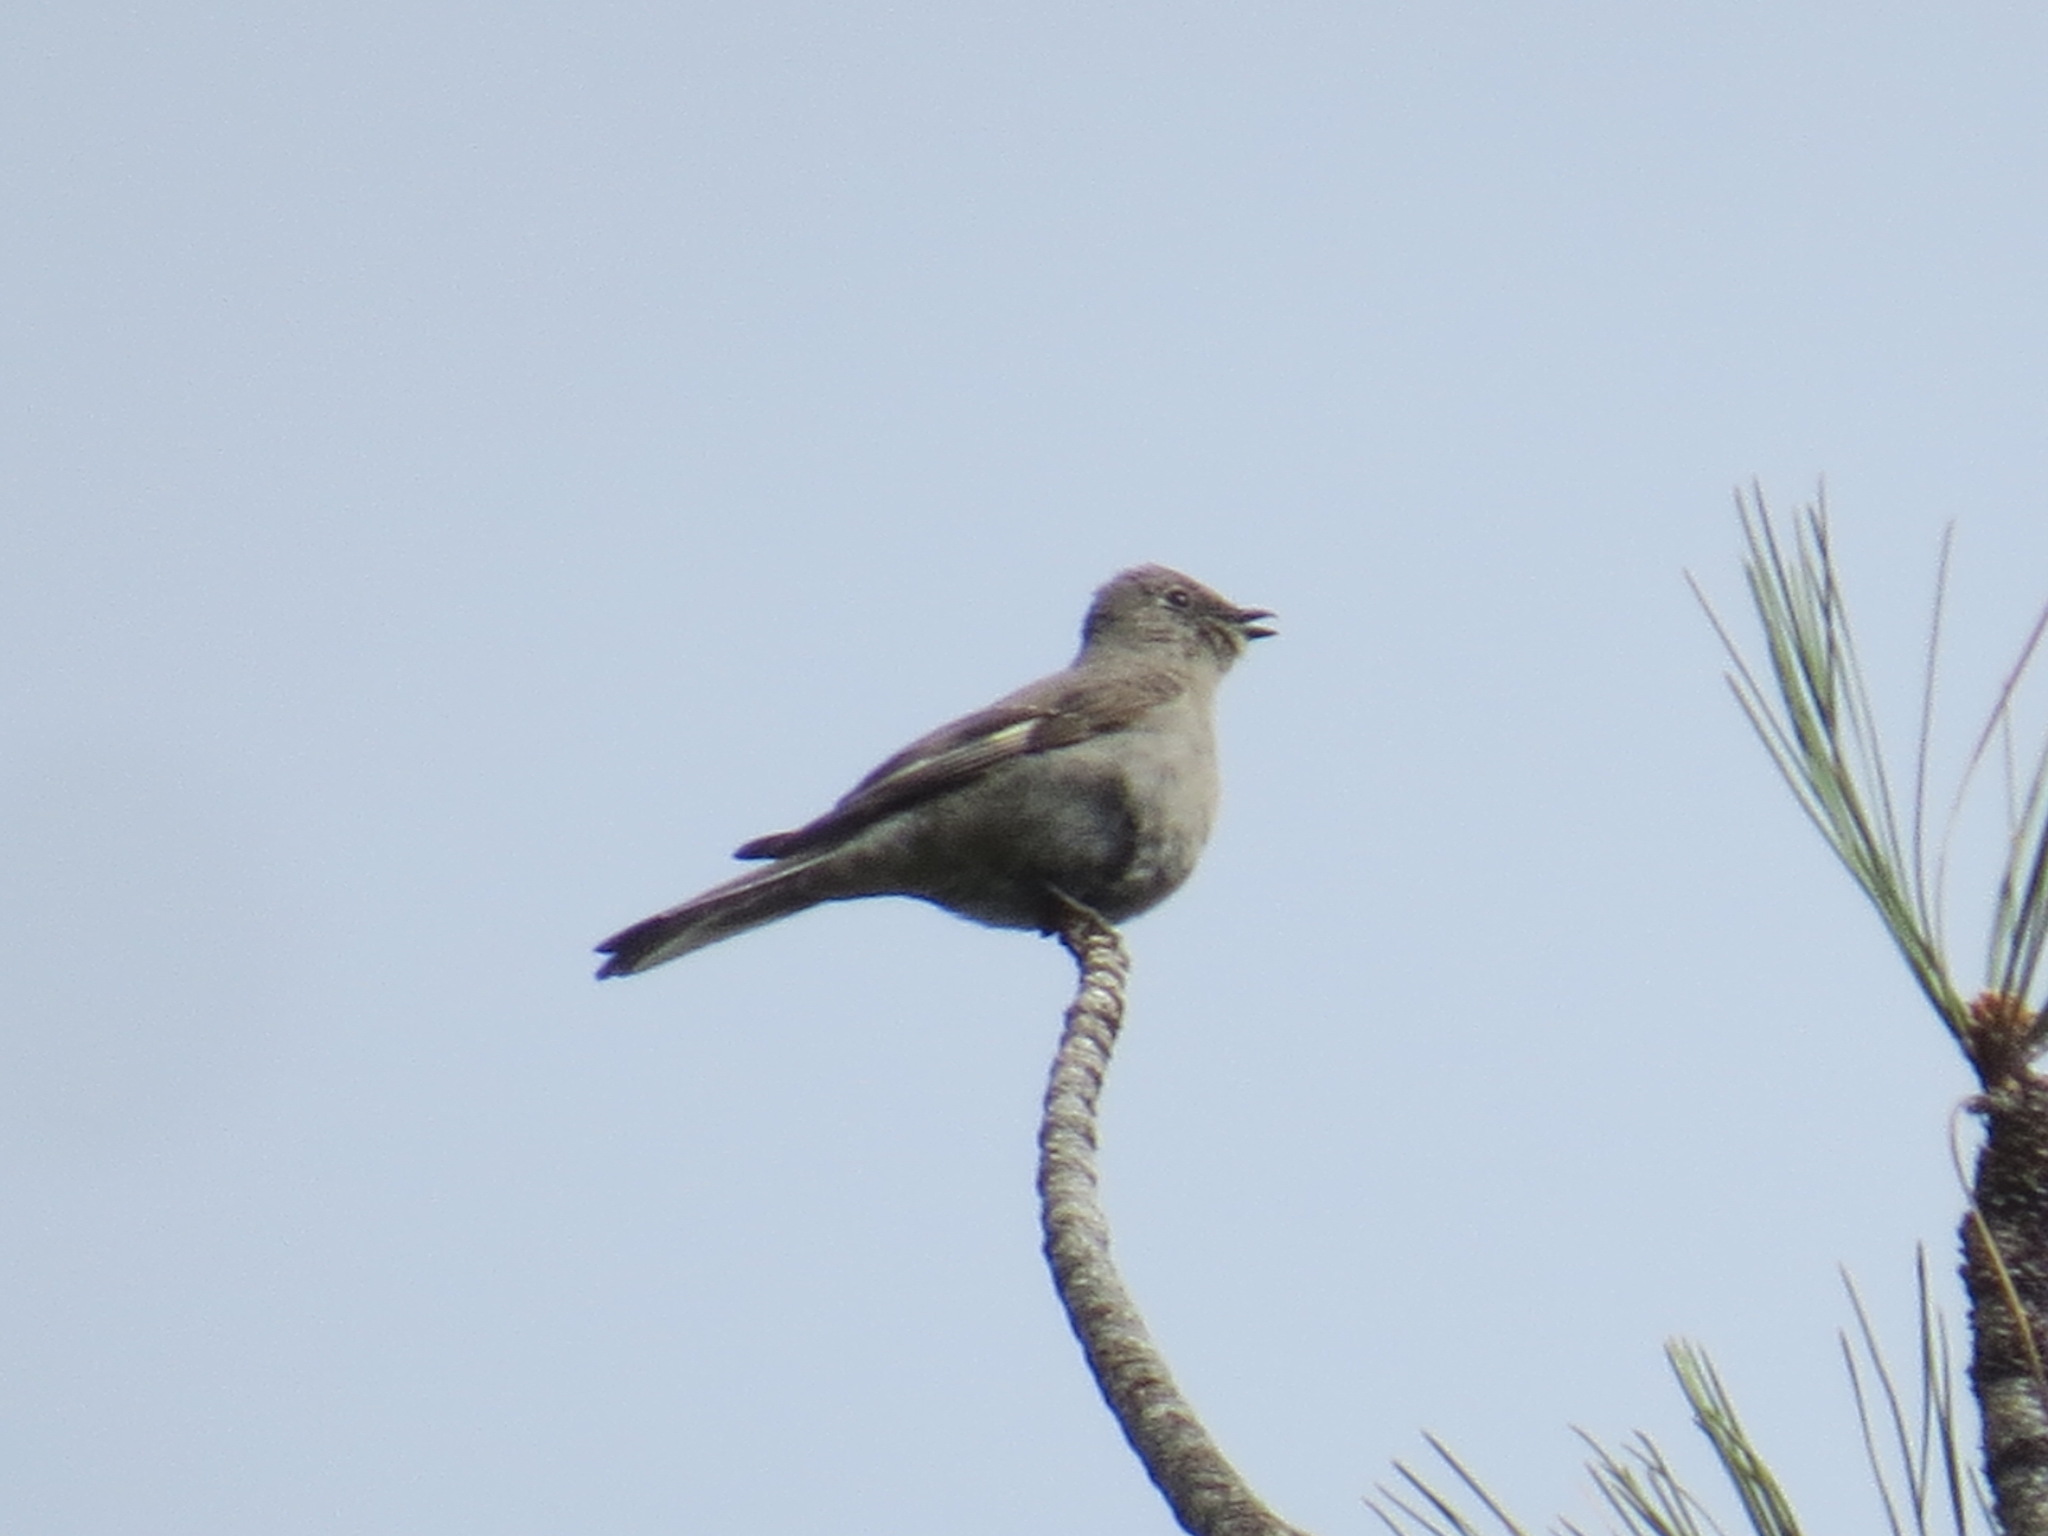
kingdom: Animalia
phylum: Chordata
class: Aves
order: Passeriformes
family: Turdidae
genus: Myadestes
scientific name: Myadestes townsendi
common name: Townsend's solitaire
